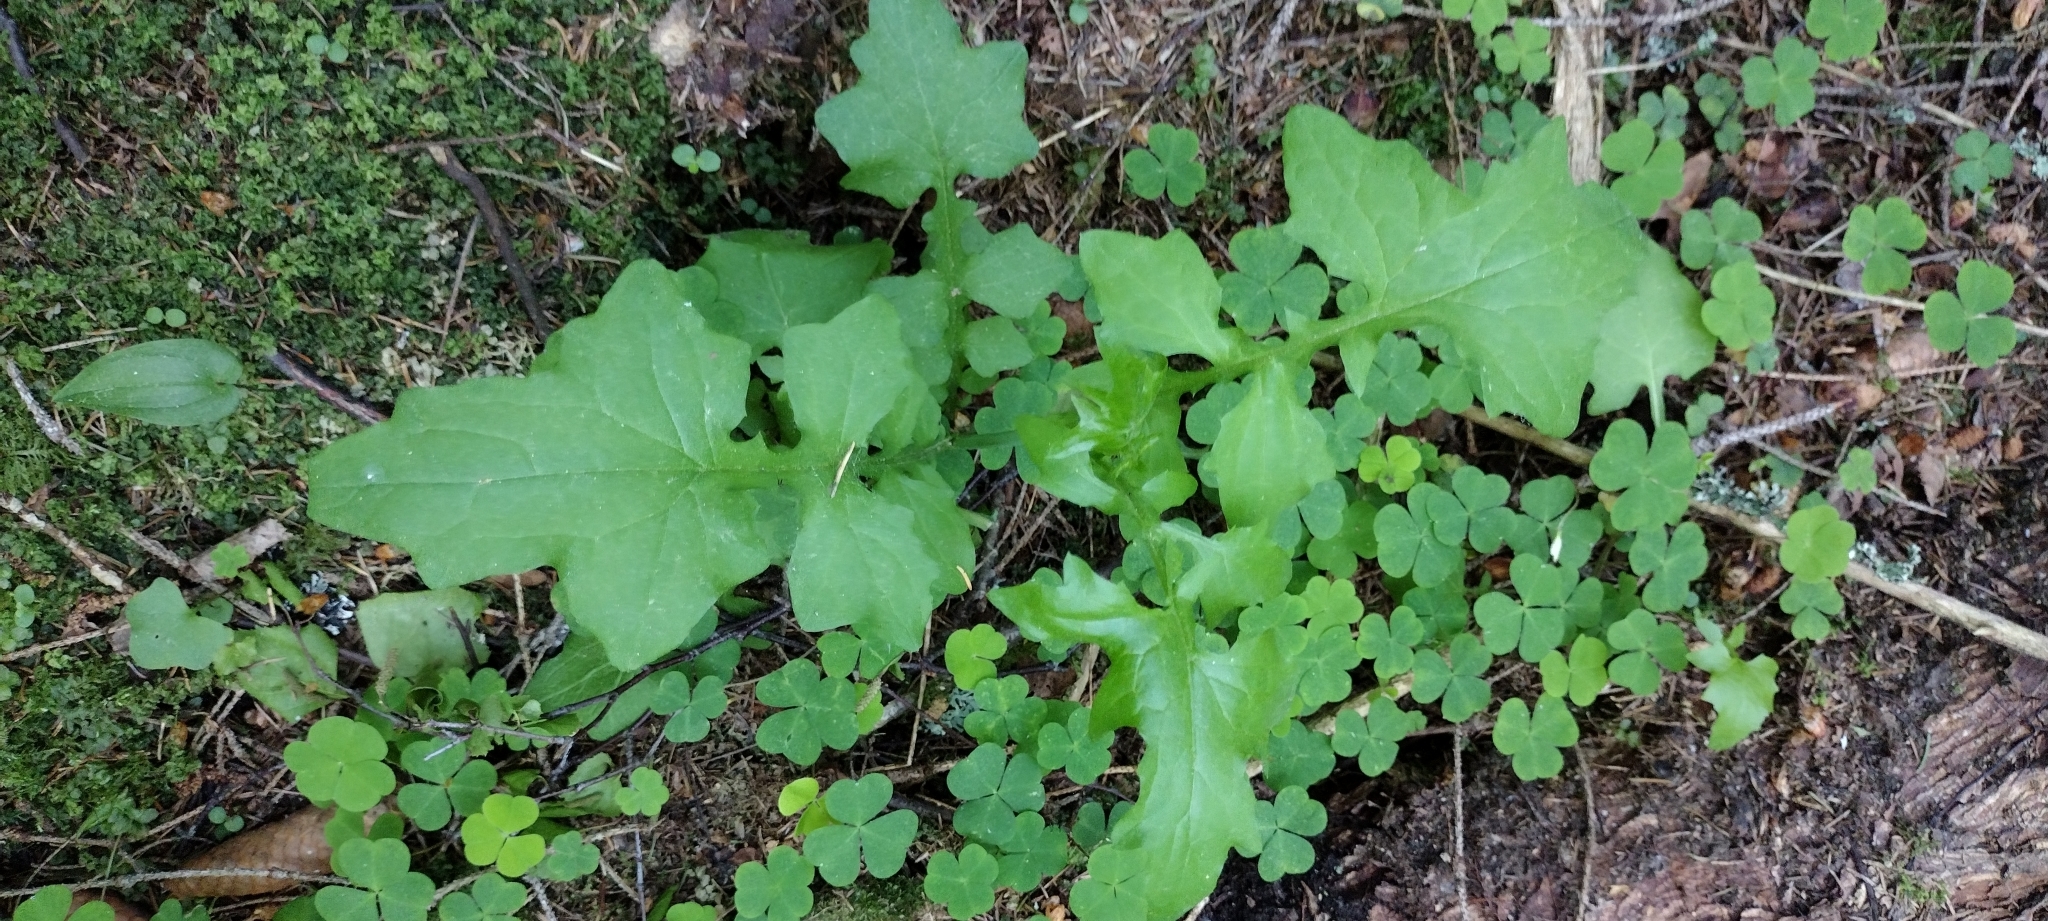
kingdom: Plantae
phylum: Tracheophyta
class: Magnoliopsida
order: Asterales
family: Asteraceae
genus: Mycelis
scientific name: Mycelis muralis
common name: Wall lettuce
